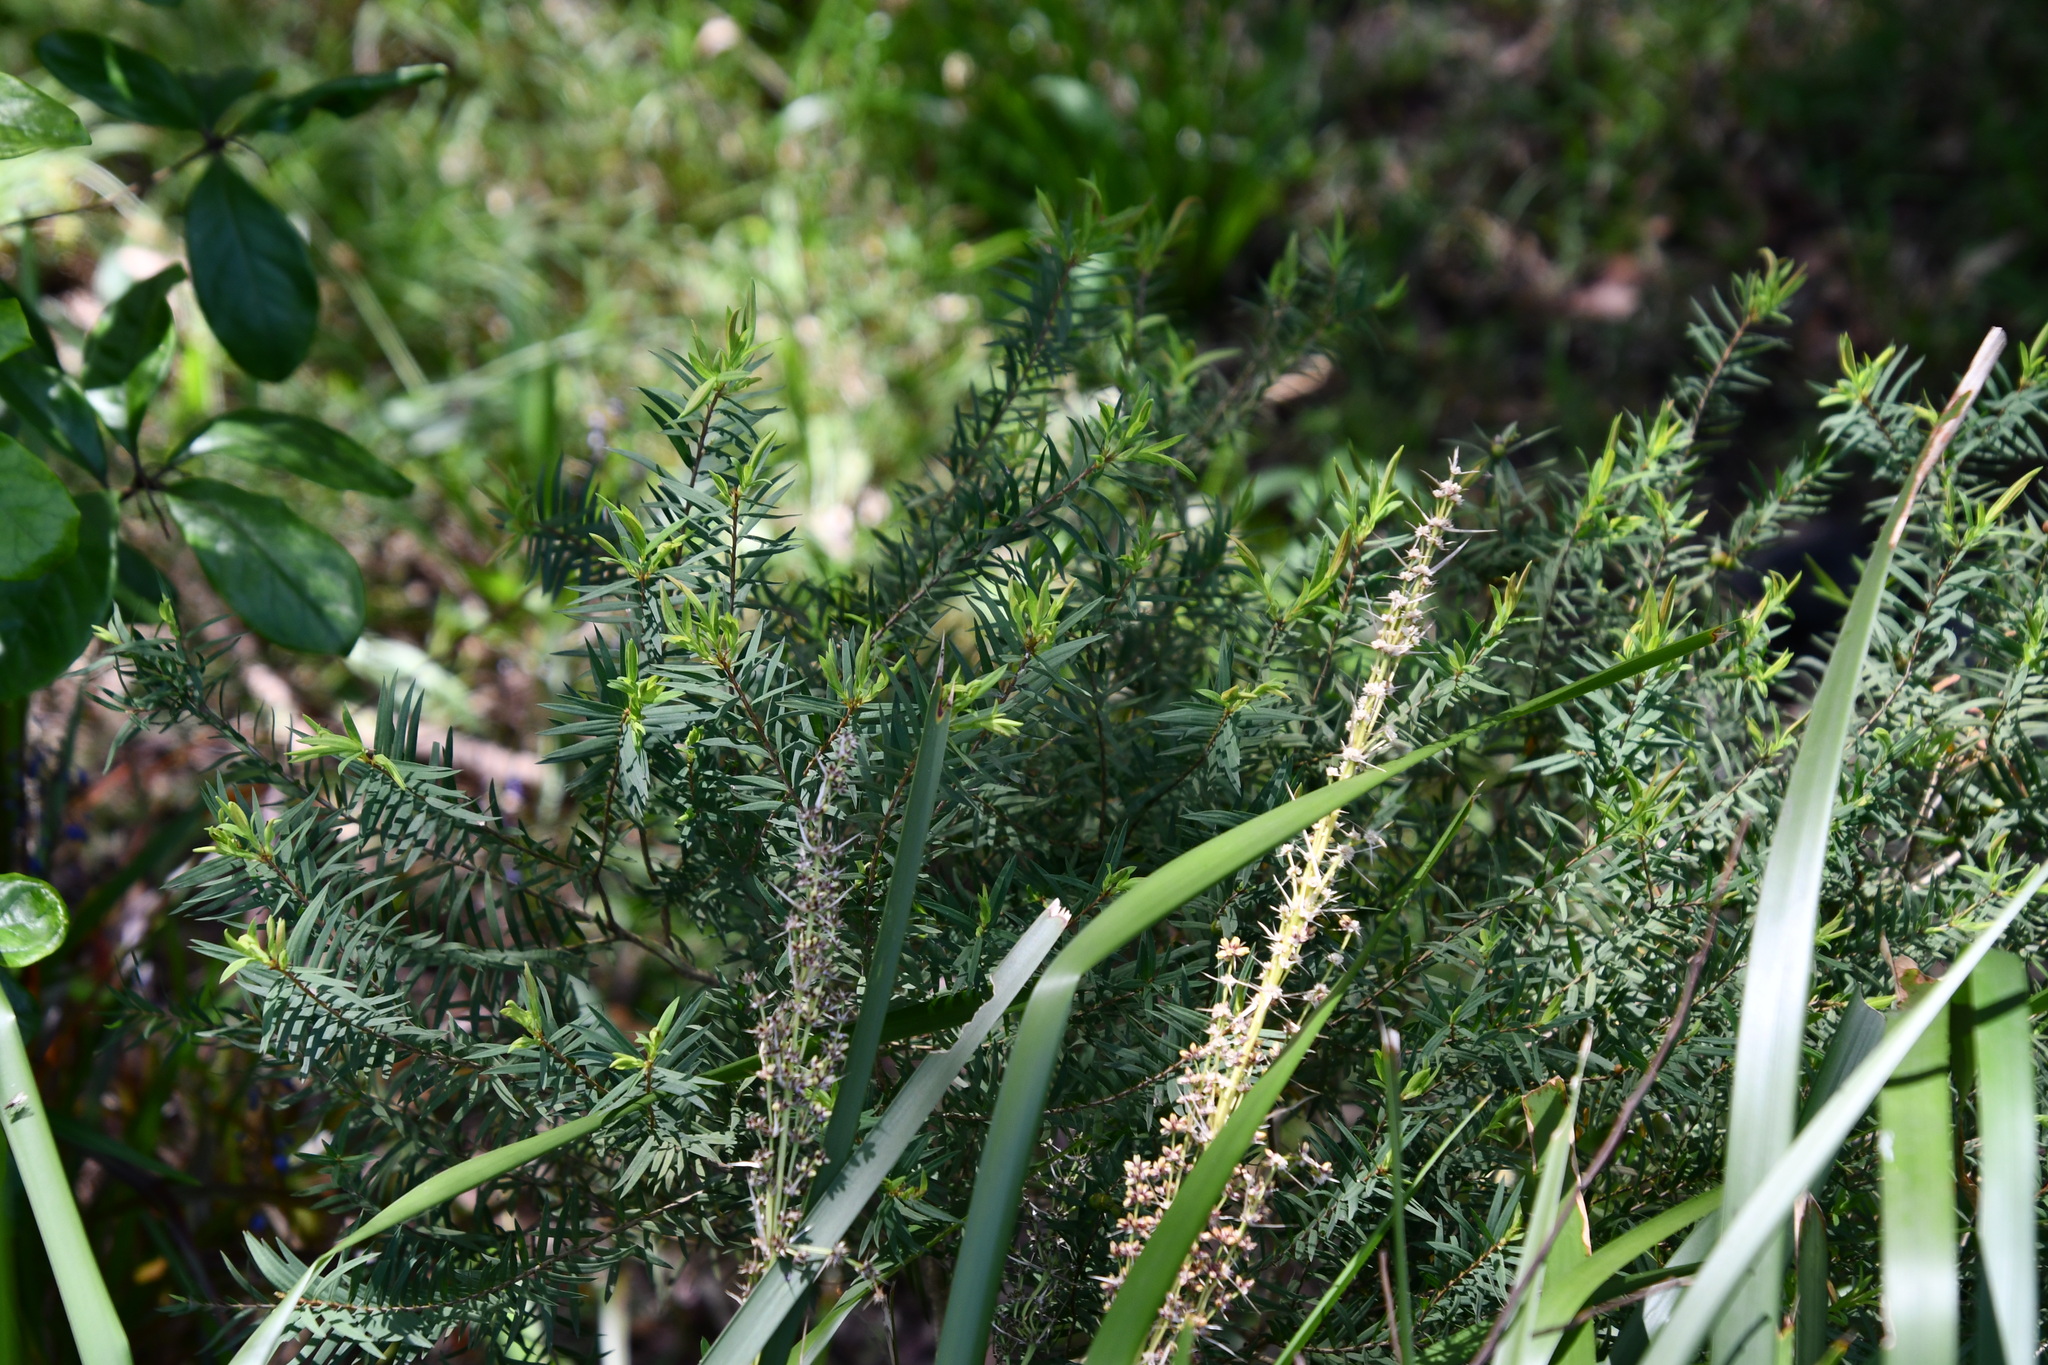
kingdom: Plantae
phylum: Tracheophyta
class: Magnoliopsida
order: Myrtales
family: Myrtaceae
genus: Melaleuca
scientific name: Melaleuca linariifolia
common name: Cajeput tree
